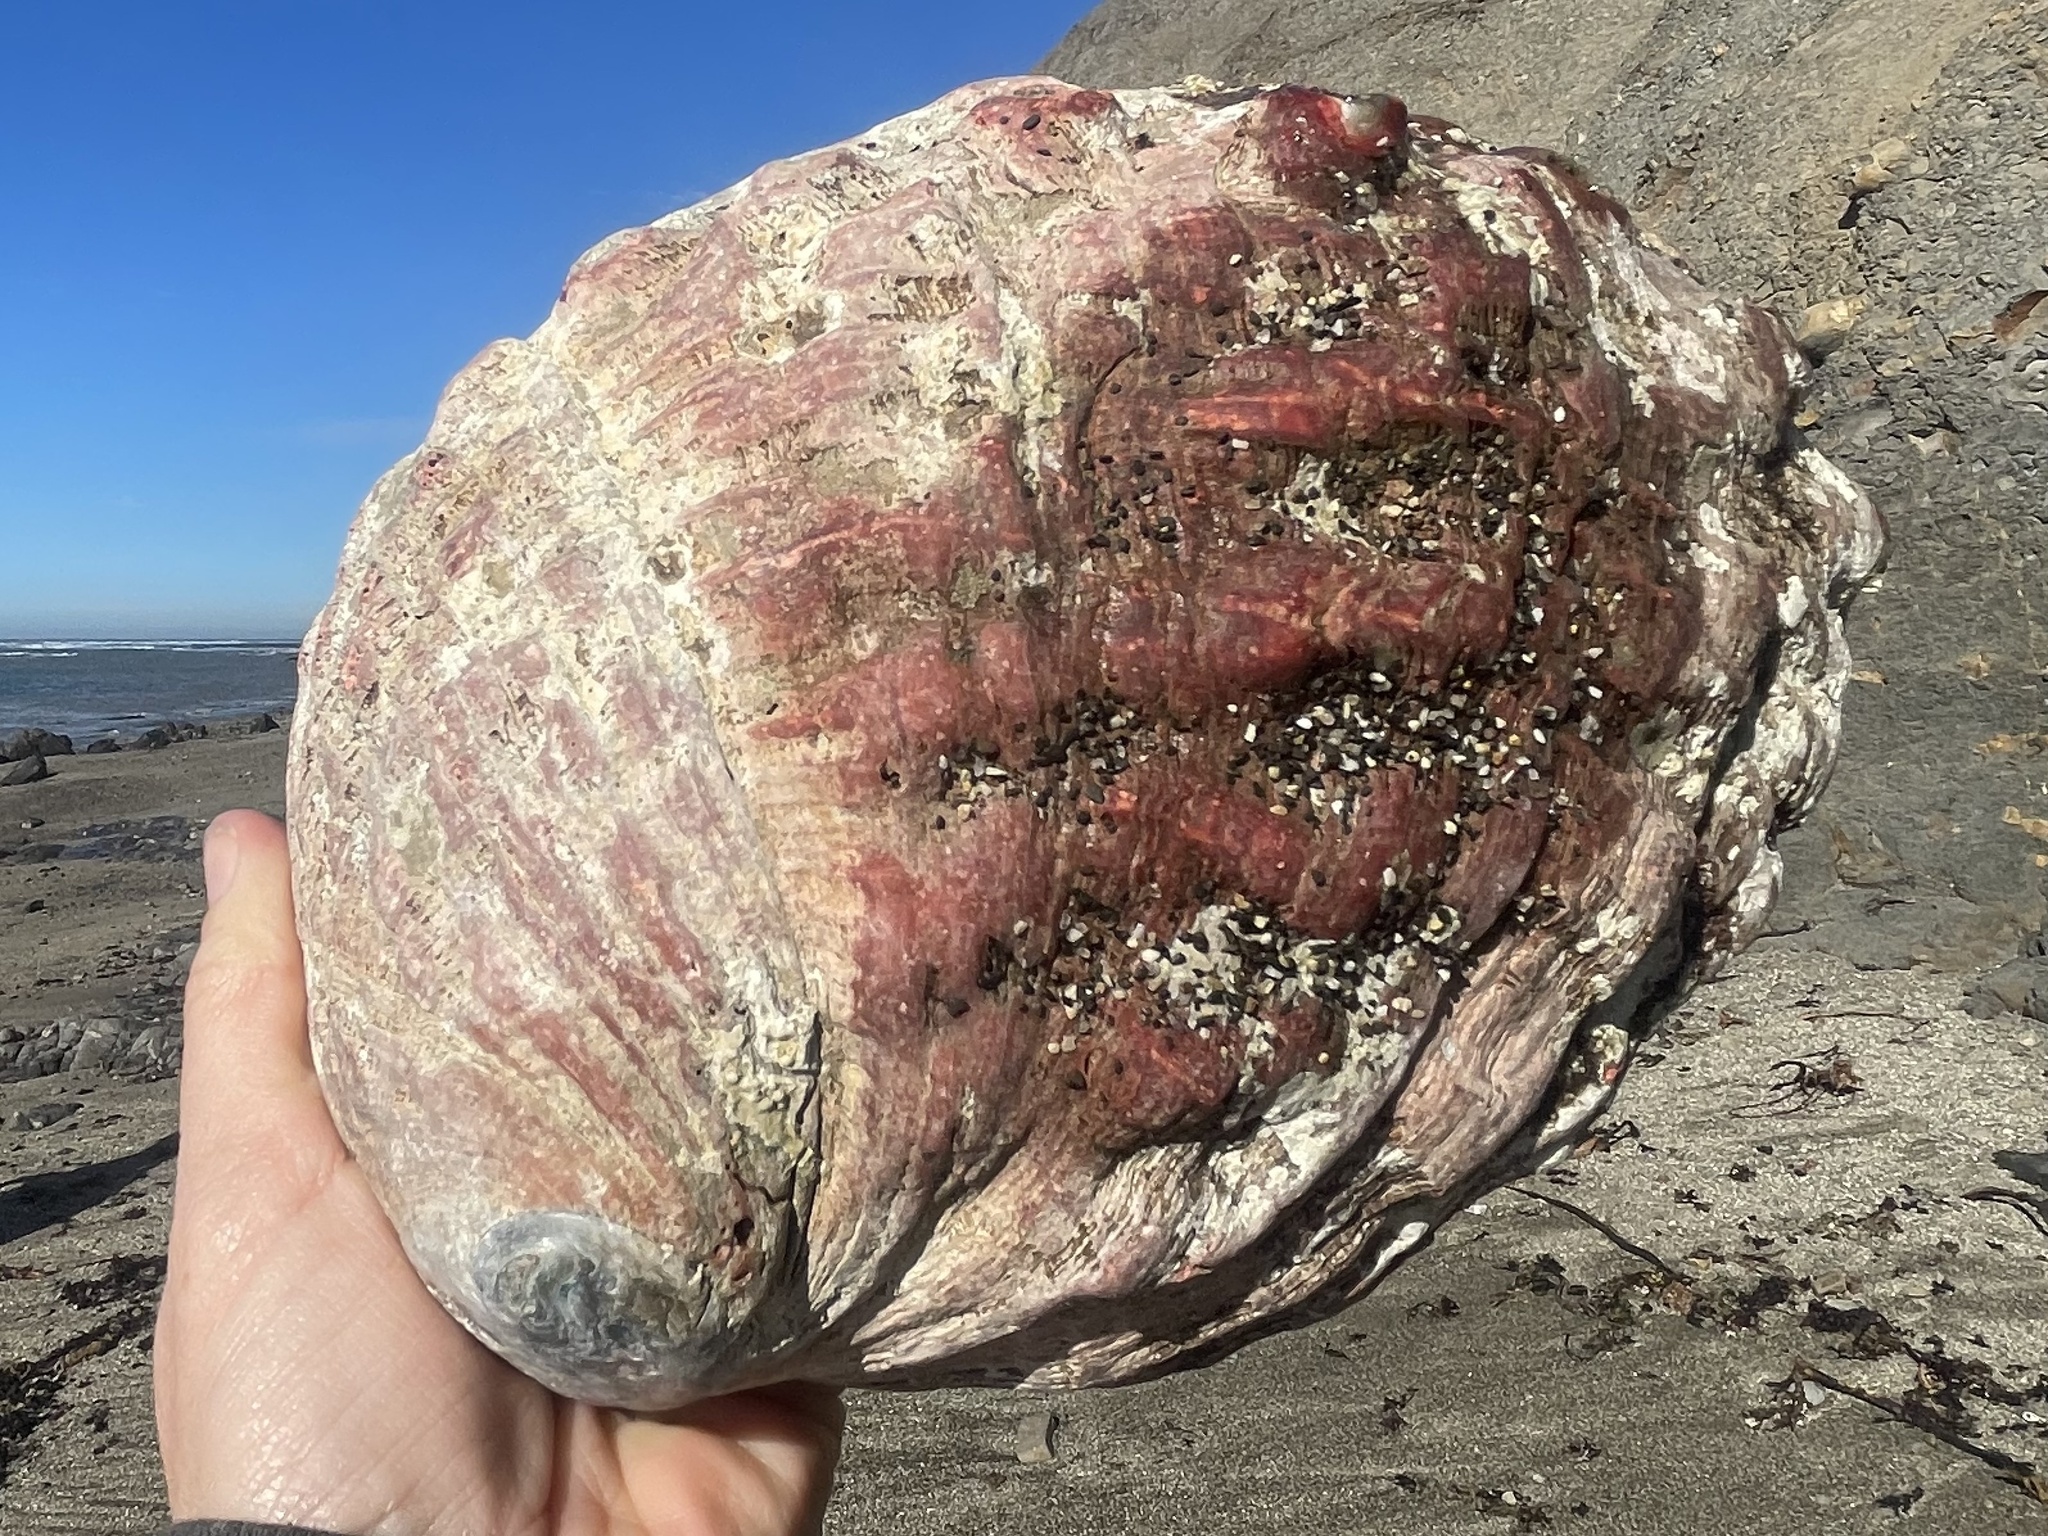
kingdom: Animalia
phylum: Mollusca
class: Gastropoda
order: Lepetellida
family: Haliotidae
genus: Haliotis
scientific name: Haliotis rufescens
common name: Red abalone
